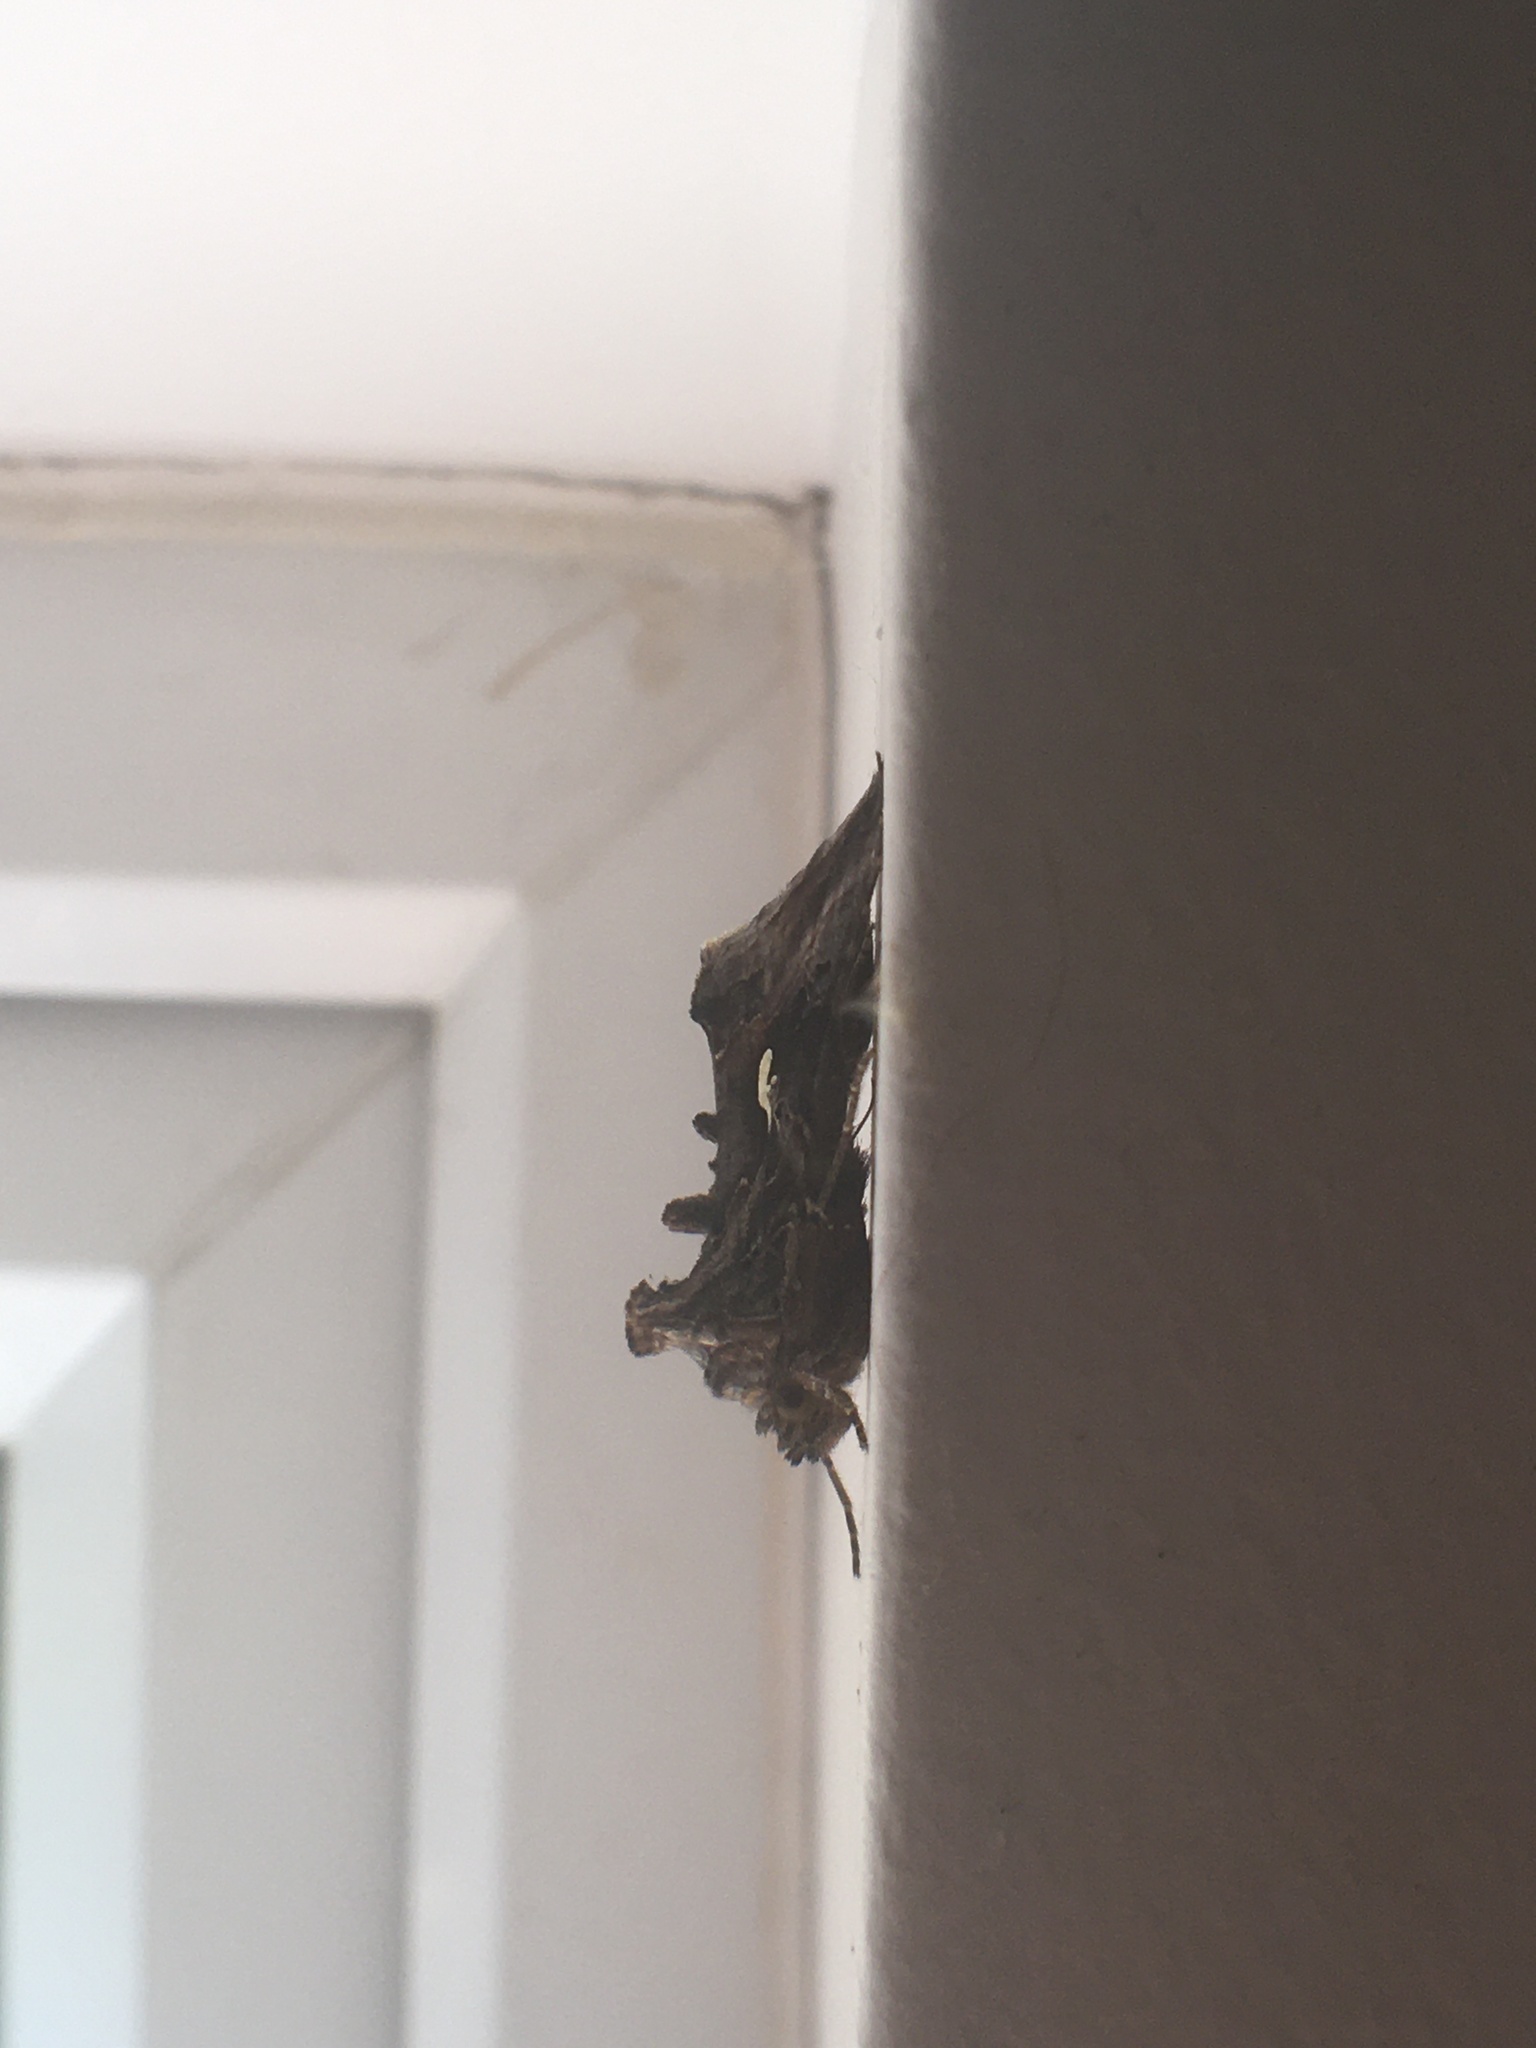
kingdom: Animalia
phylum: Arthropoda
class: Insecta
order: Lepidoptera
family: Noctuidae
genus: Autographa
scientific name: Autographa gamma
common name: Silver y
